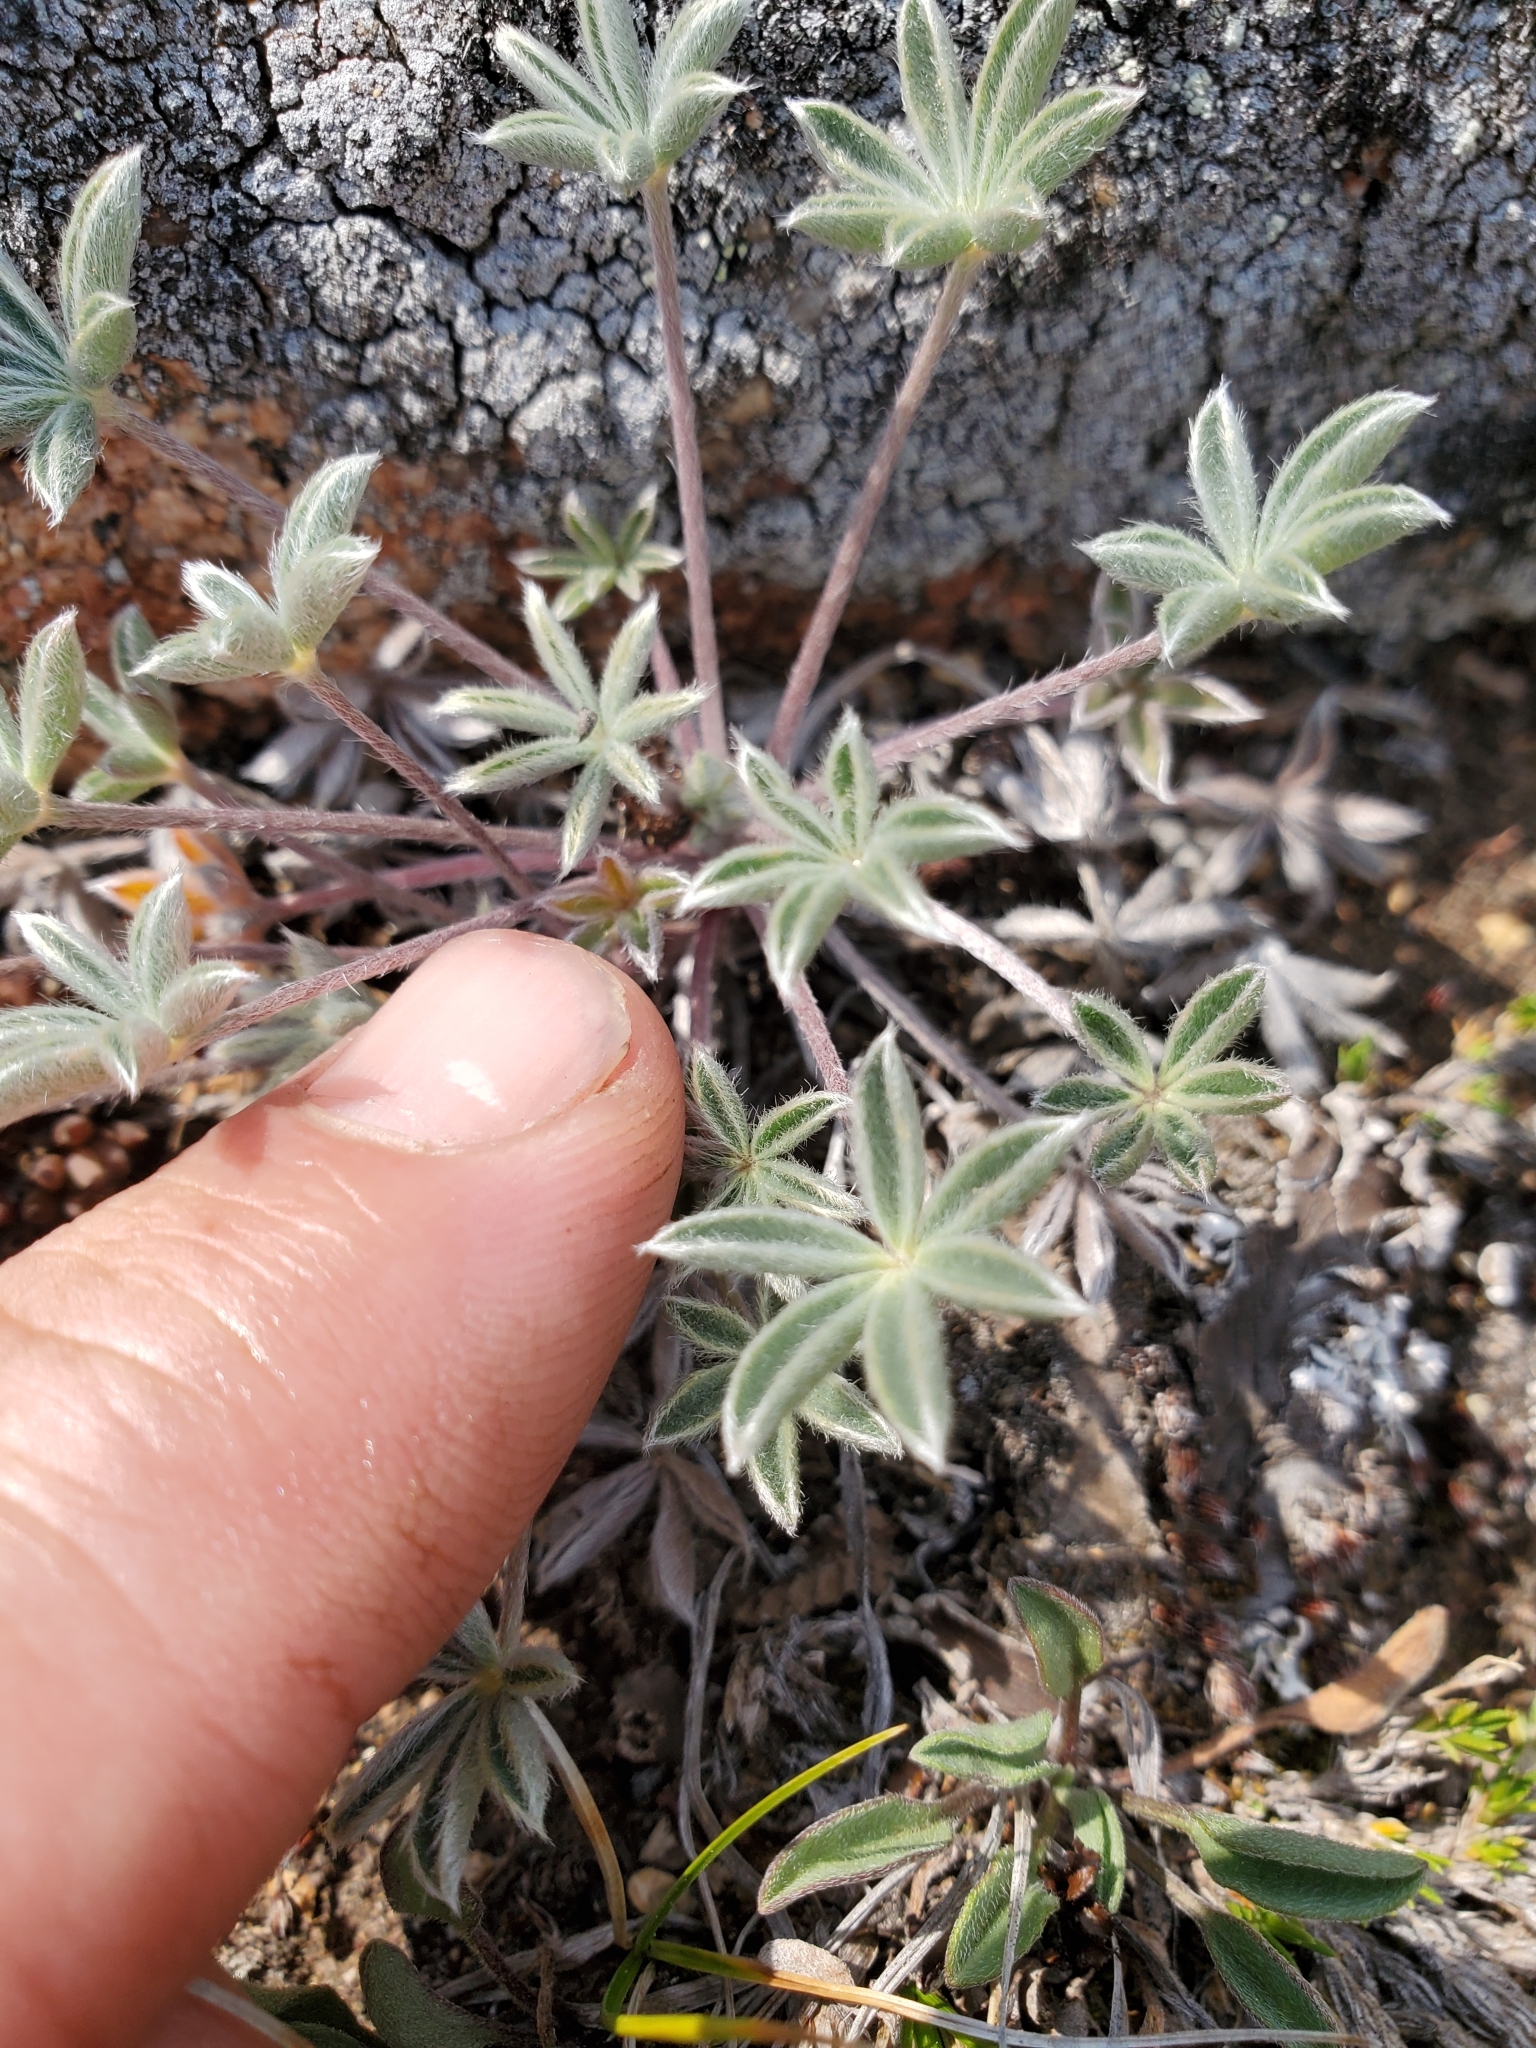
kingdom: Plantae
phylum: Tracheophyta
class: Magnoliopsida
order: Fabales
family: Fabaceae
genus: Lupinus
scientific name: Lupinus lepidus
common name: Prairie lupine
